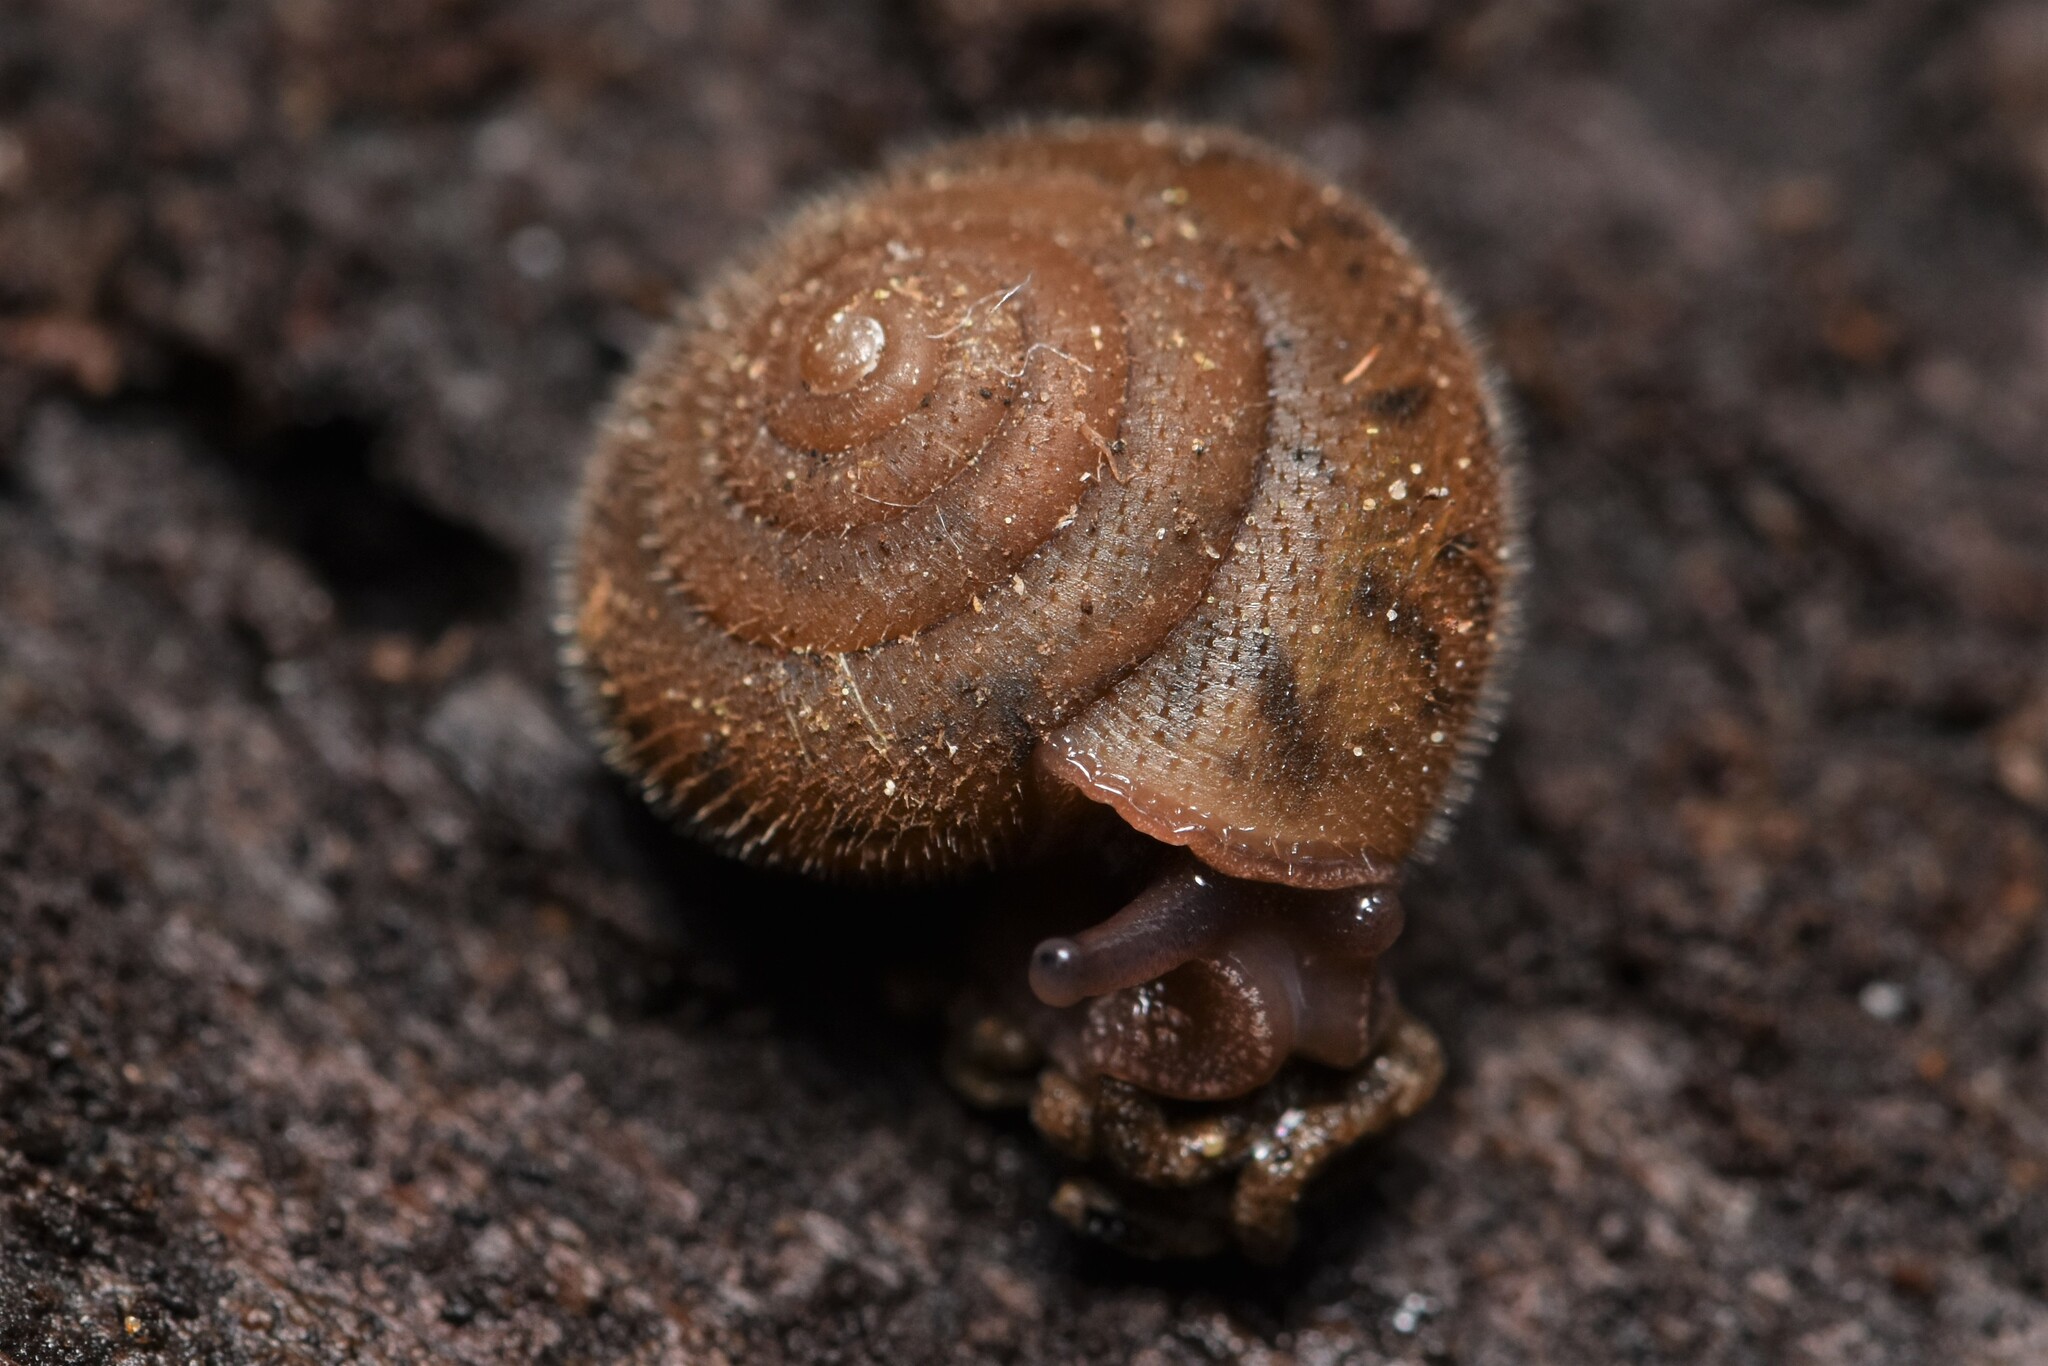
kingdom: Animalia
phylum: Mollusca
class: Gastropoda
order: Stylommatophora
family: Polygyridae
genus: Vespericola
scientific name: Vespericola columbianus
